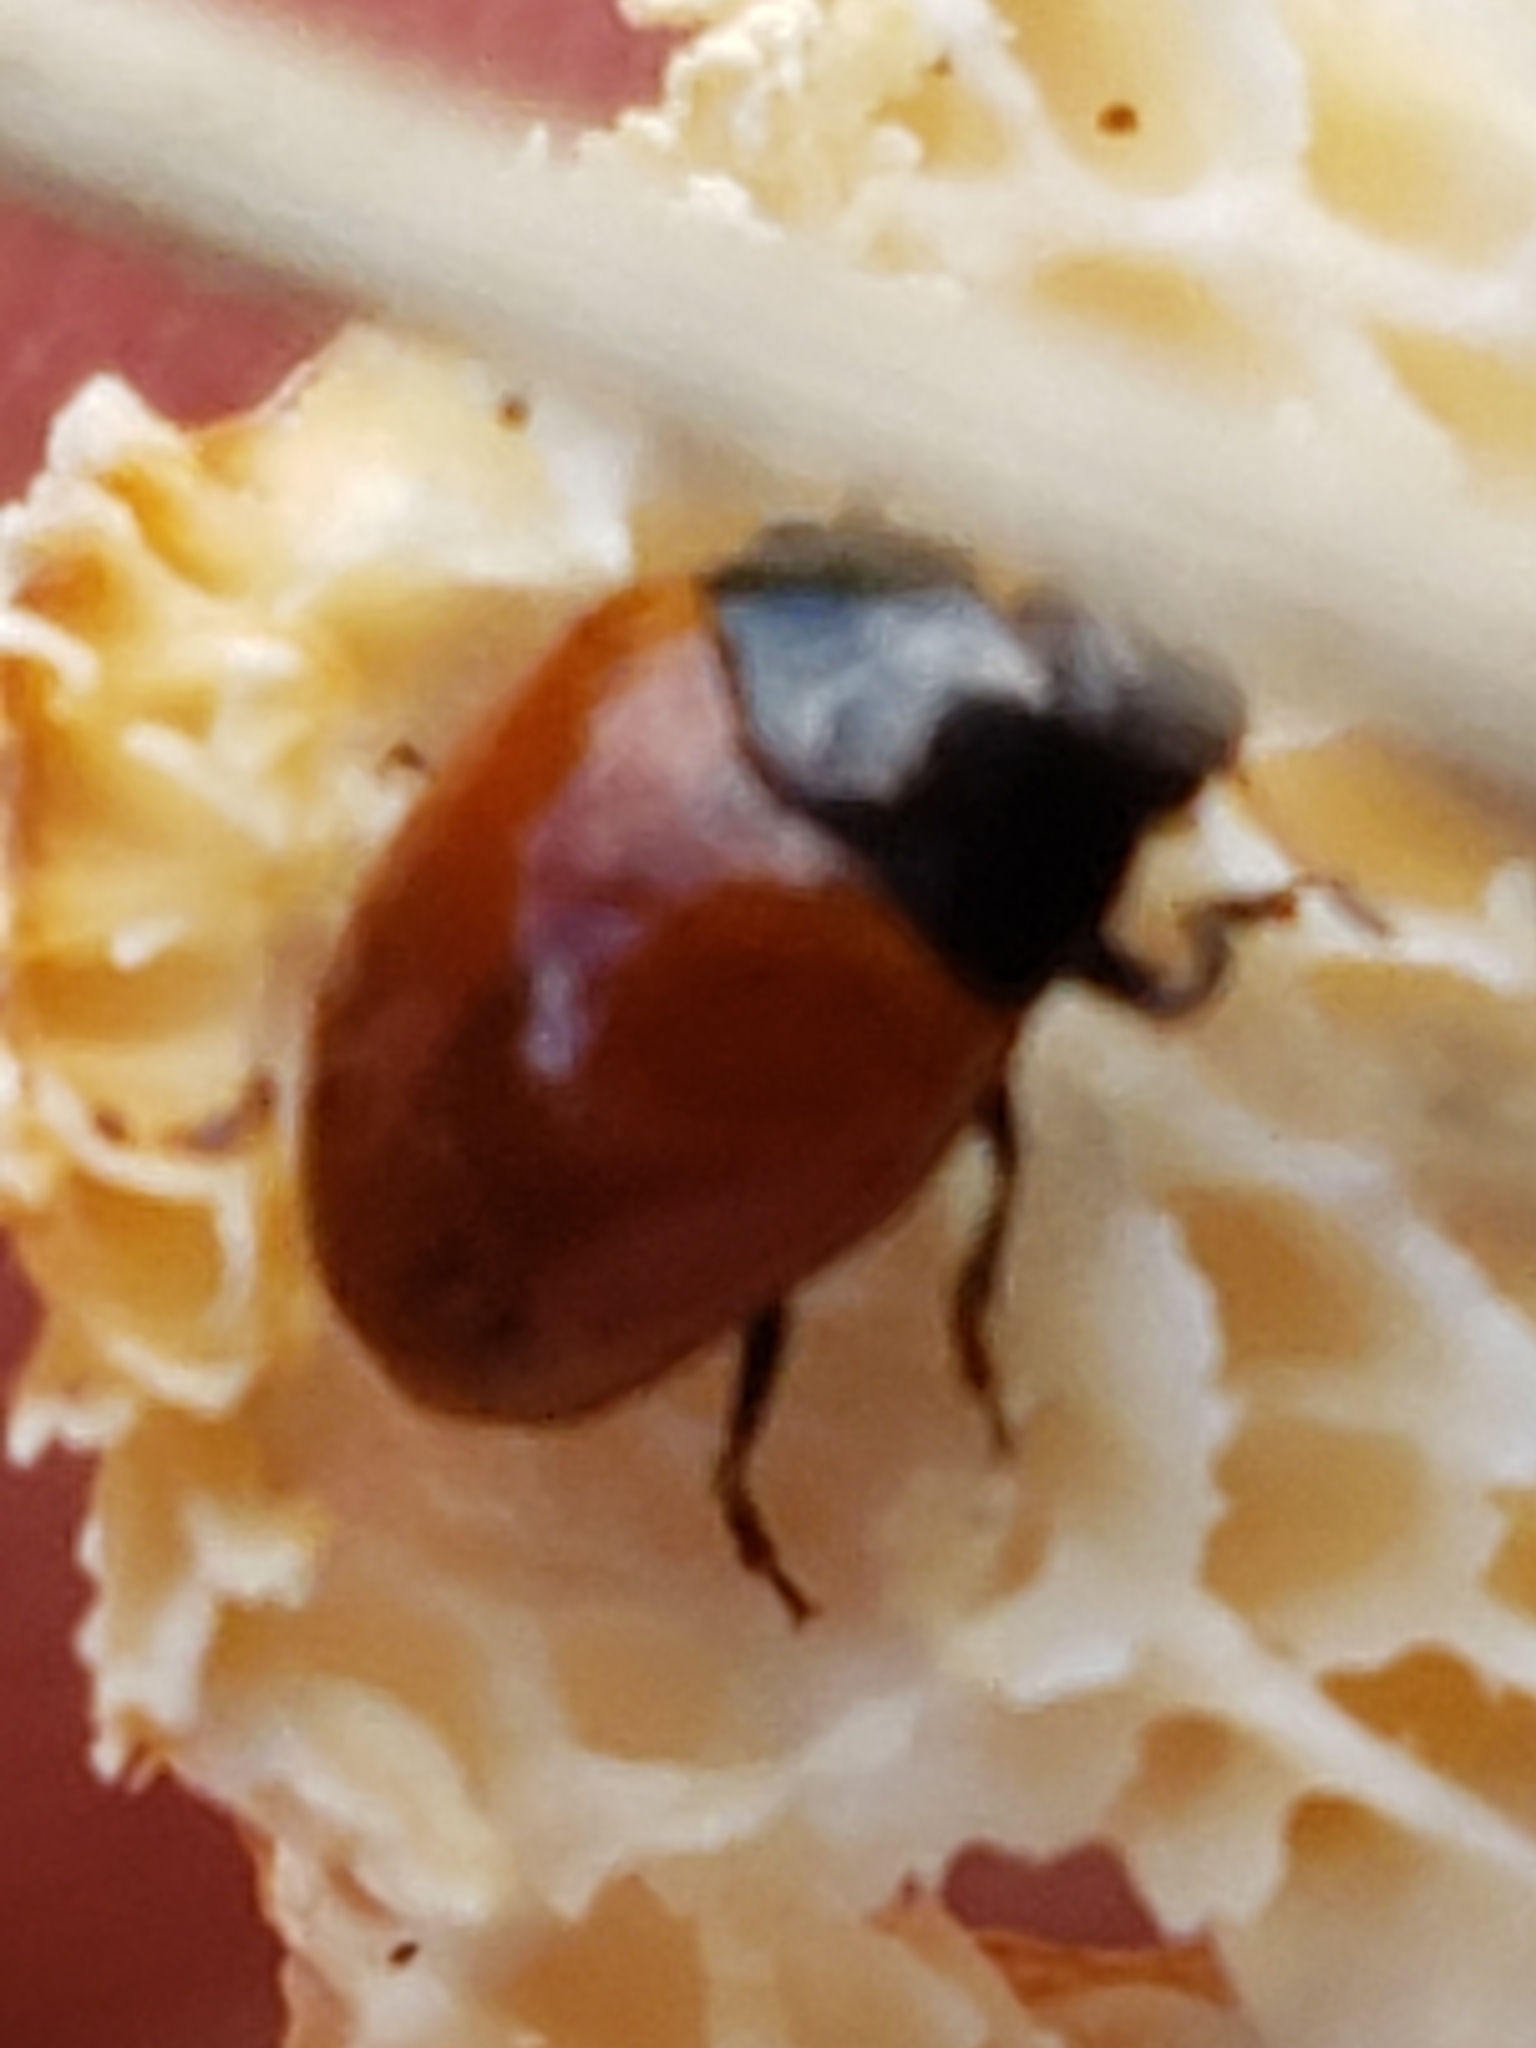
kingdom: Animalia
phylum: Arthropoda
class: Insecta
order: Coleoptera
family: Erotylidae
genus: Tritoma
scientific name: Tritoma sanguinipennis
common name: Red-winged tritoma
